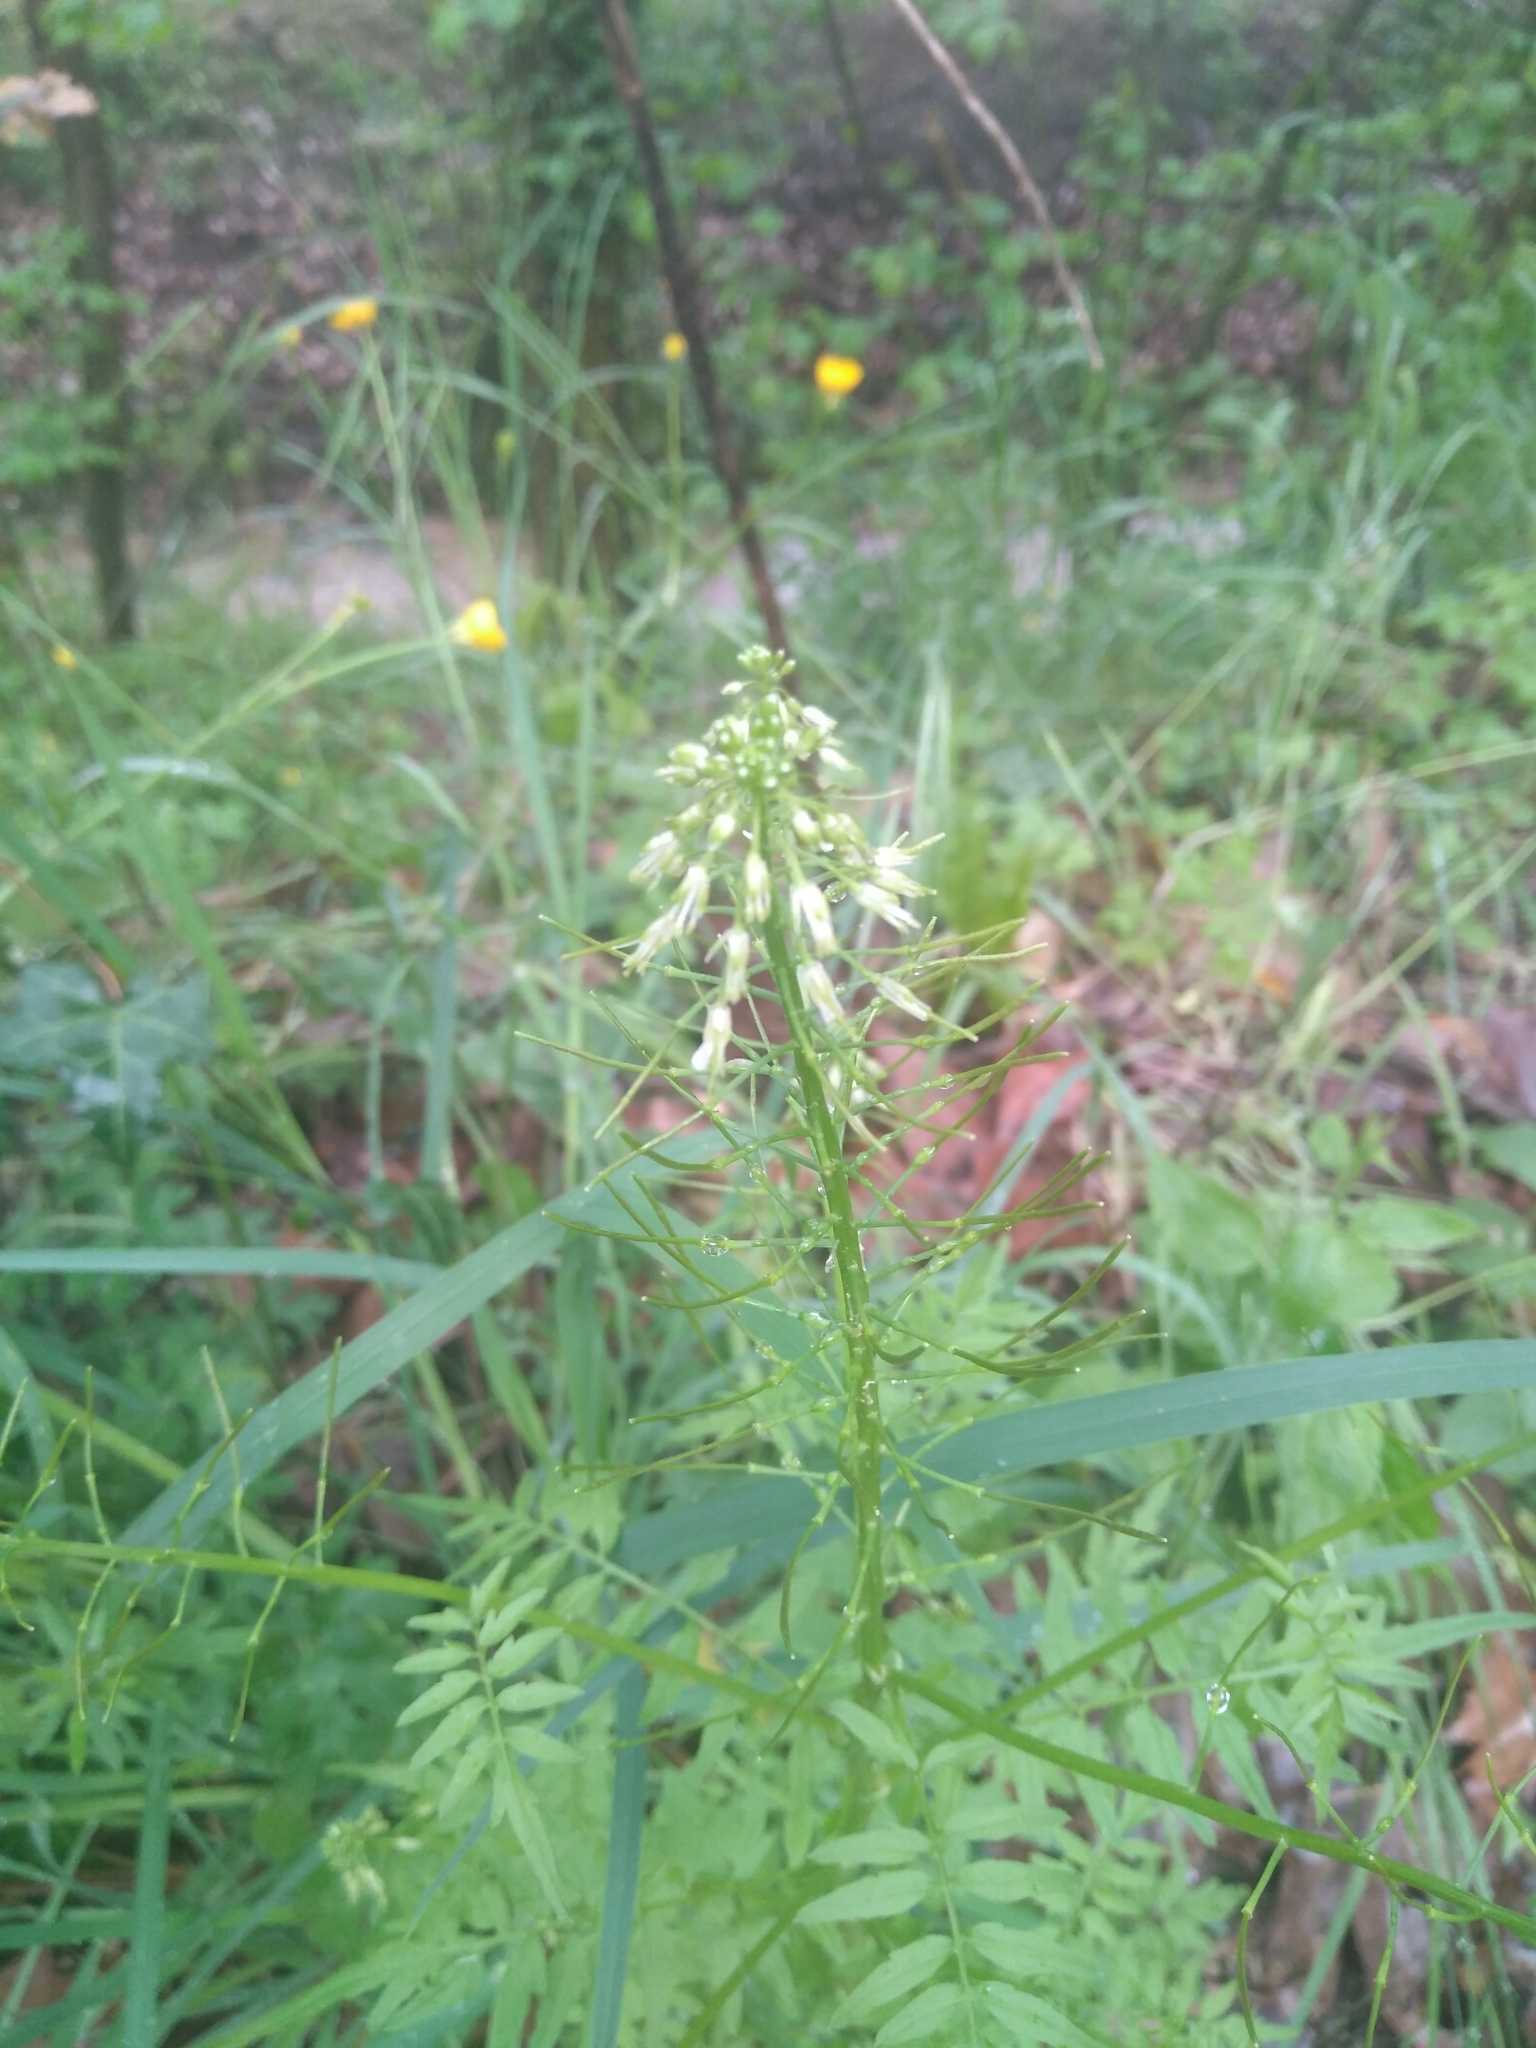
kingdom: Plantae
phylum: Tracheophyta
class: Magnoliopsida
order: Brassicales
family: Brassicaceae
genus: Cardamine
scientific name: Cardamine impatiens
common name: Narrow-leaved bitter-cress
